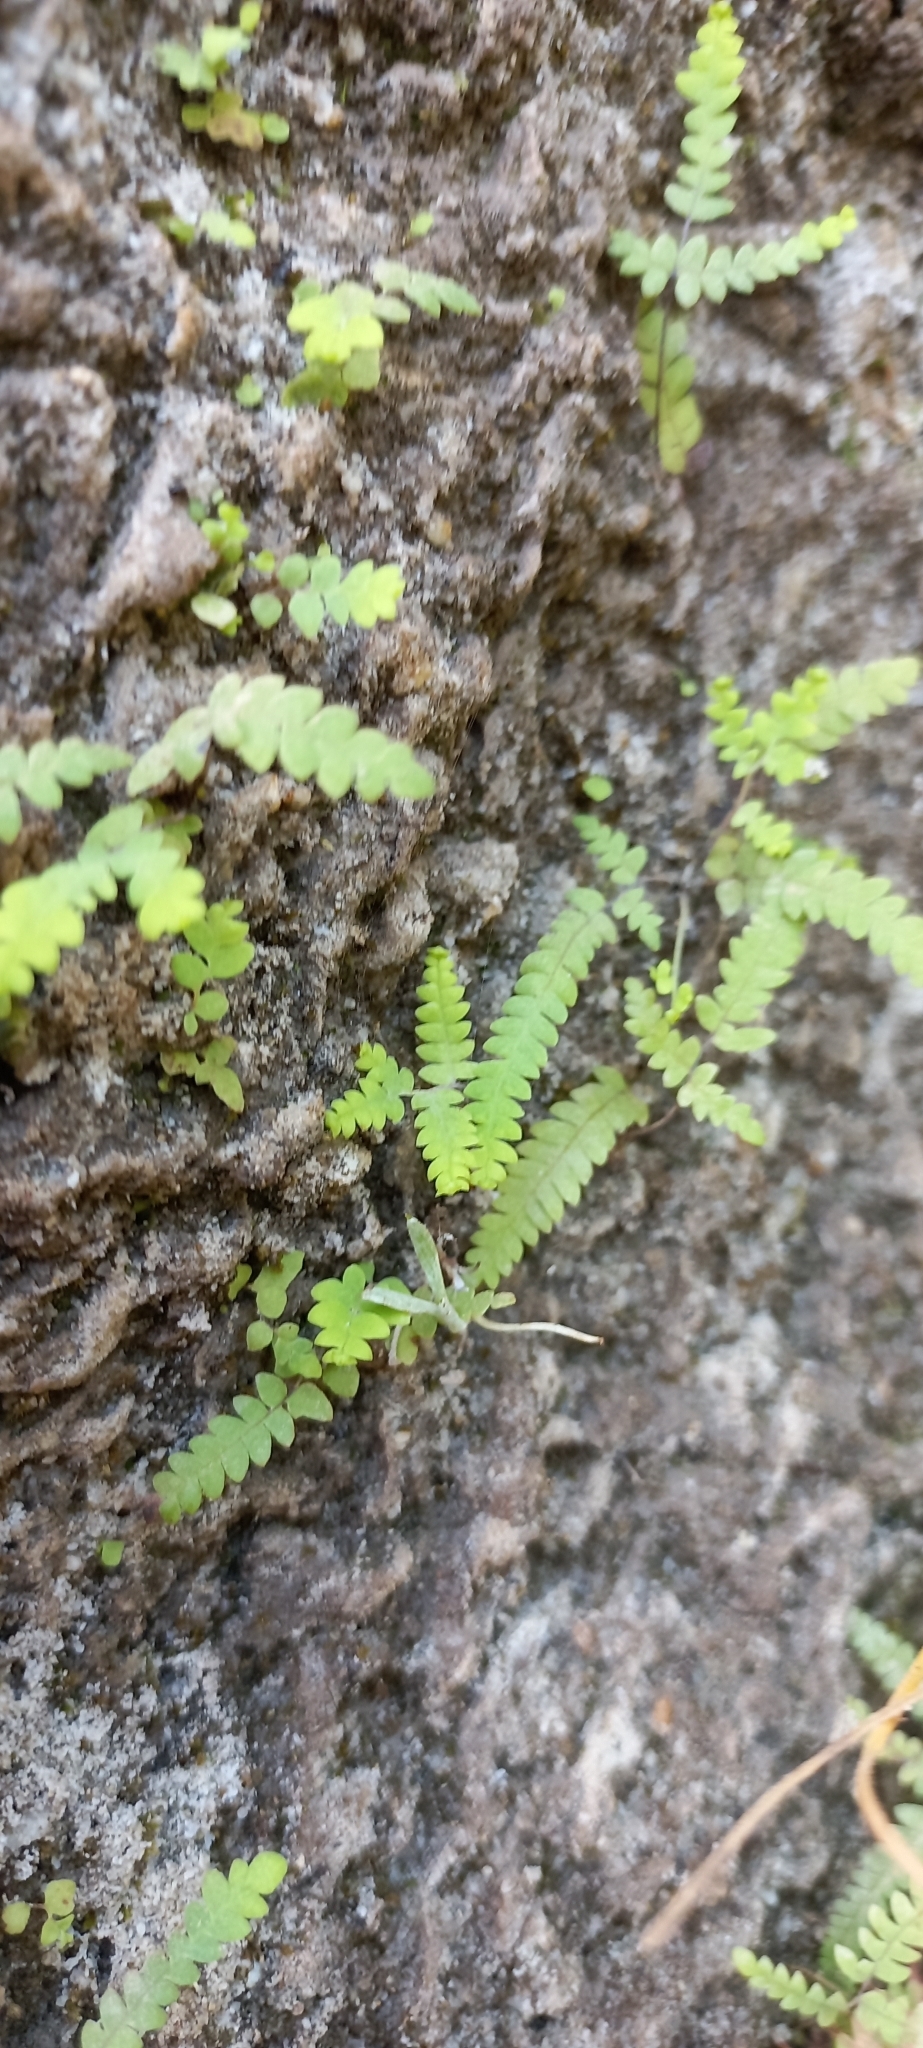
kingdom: Plantae
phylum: Tracheophyta
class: Polypodiopsida
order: Gleicheniales
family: Gleicheniaceae
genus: Gleichenia
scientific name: Gleichenia polypodioides
